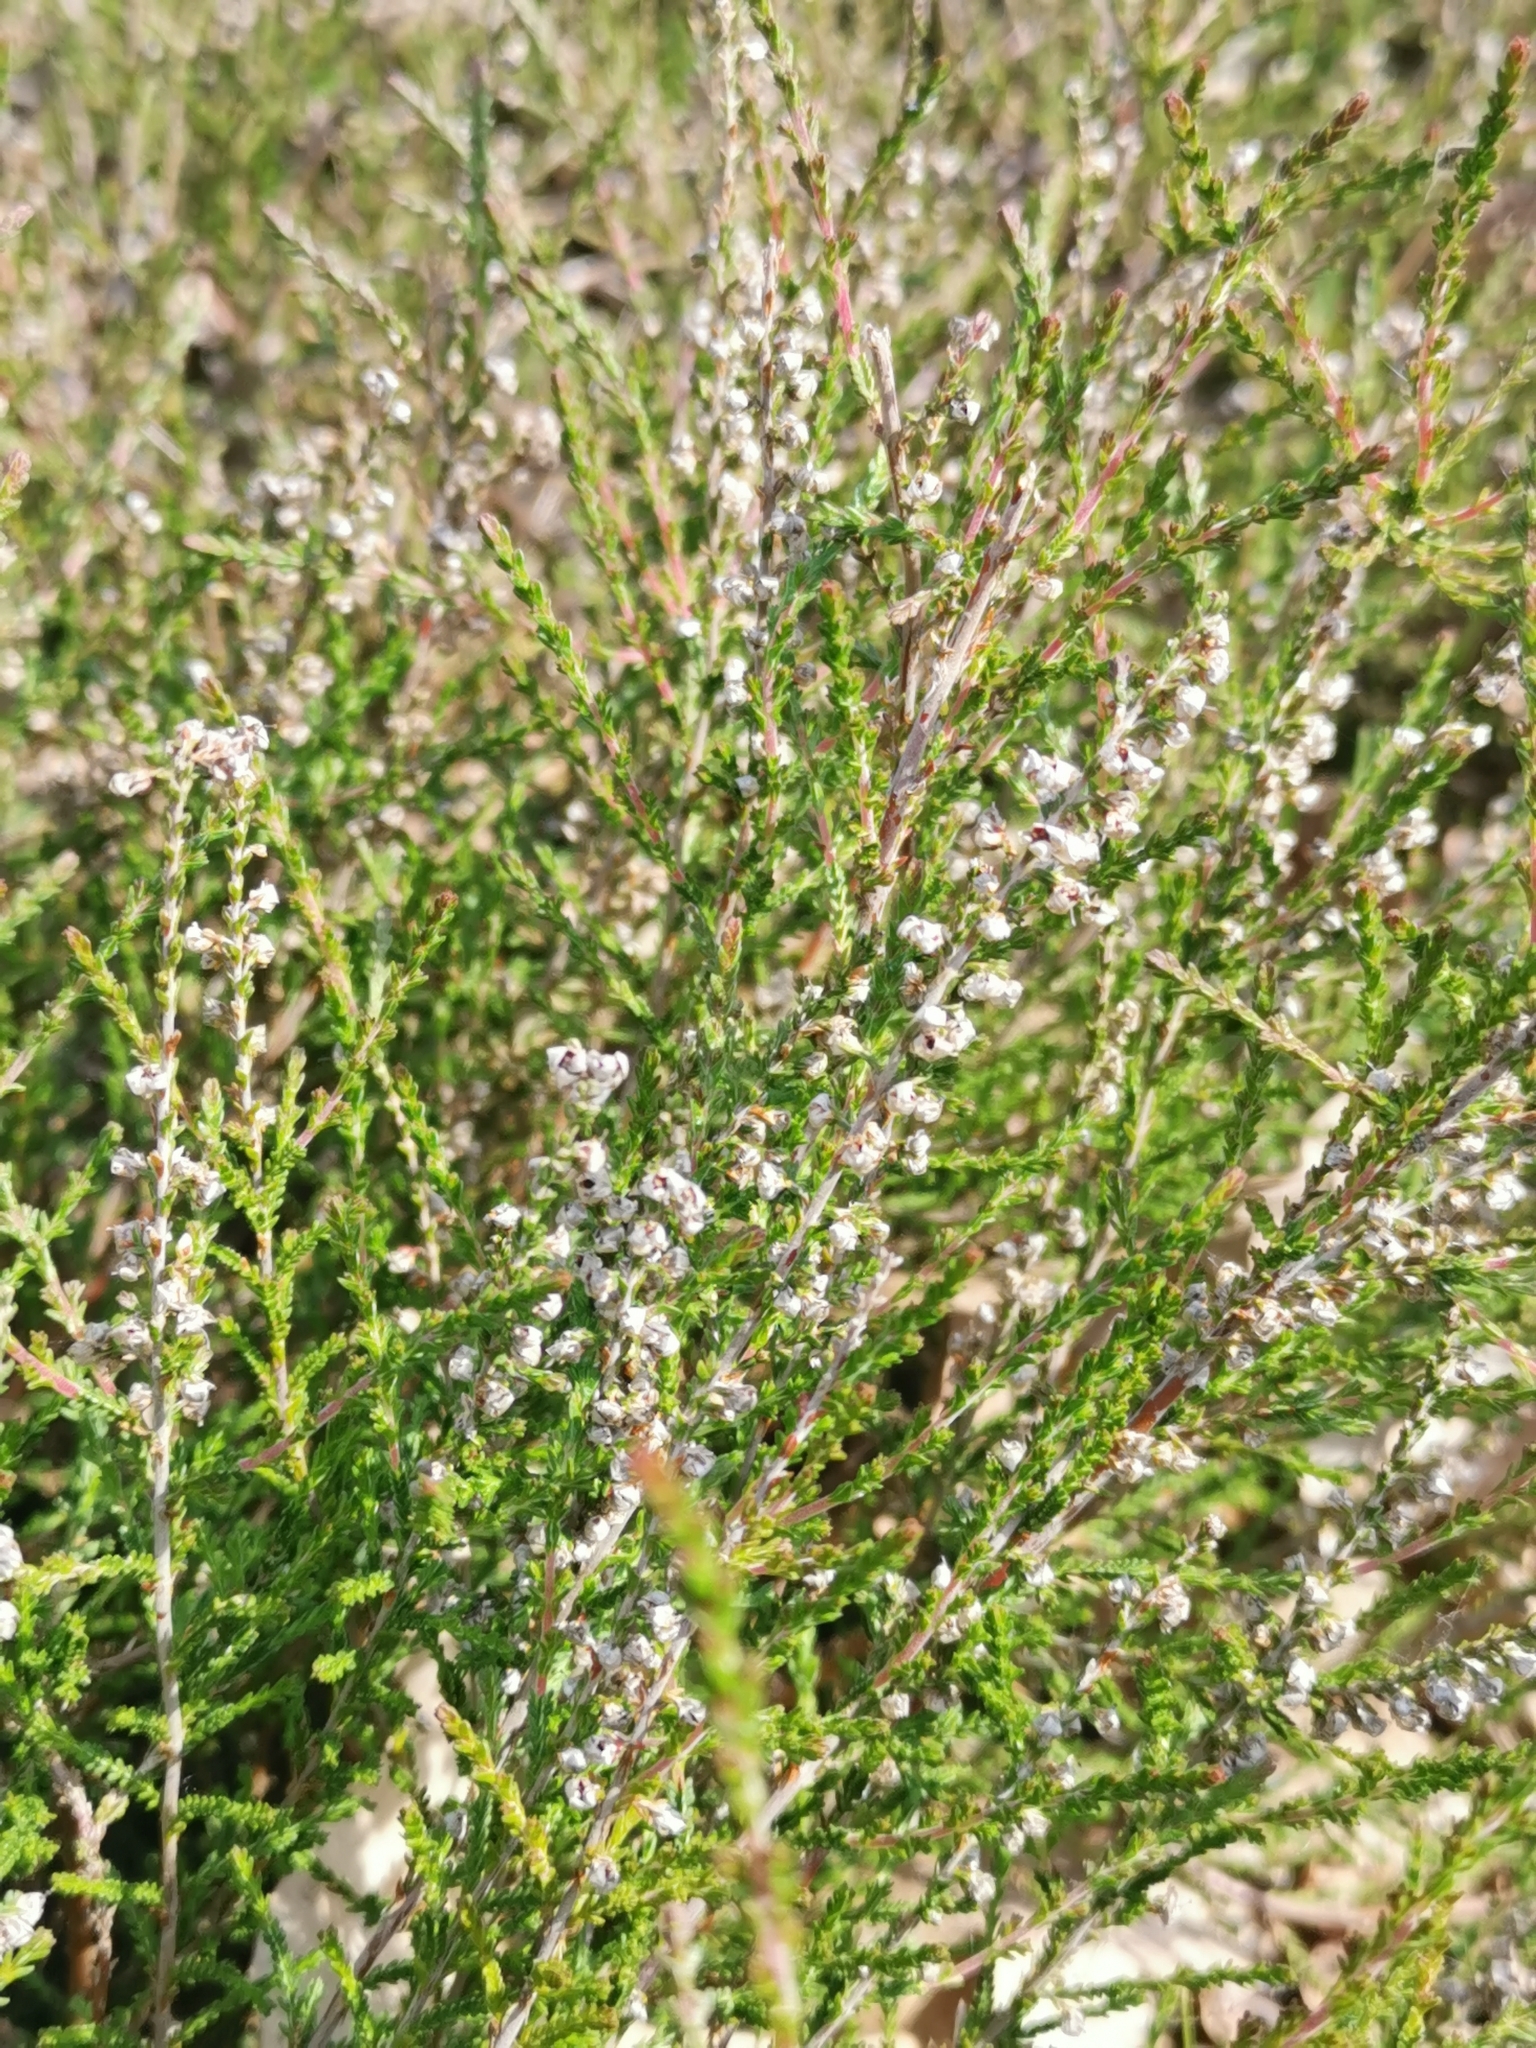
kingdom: Plantae
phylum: Tracheophyta
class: Magnoliopsida
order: Ericales
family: Ericaceae
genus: Calluna
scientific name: Calluna vulgaris
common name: Heather
